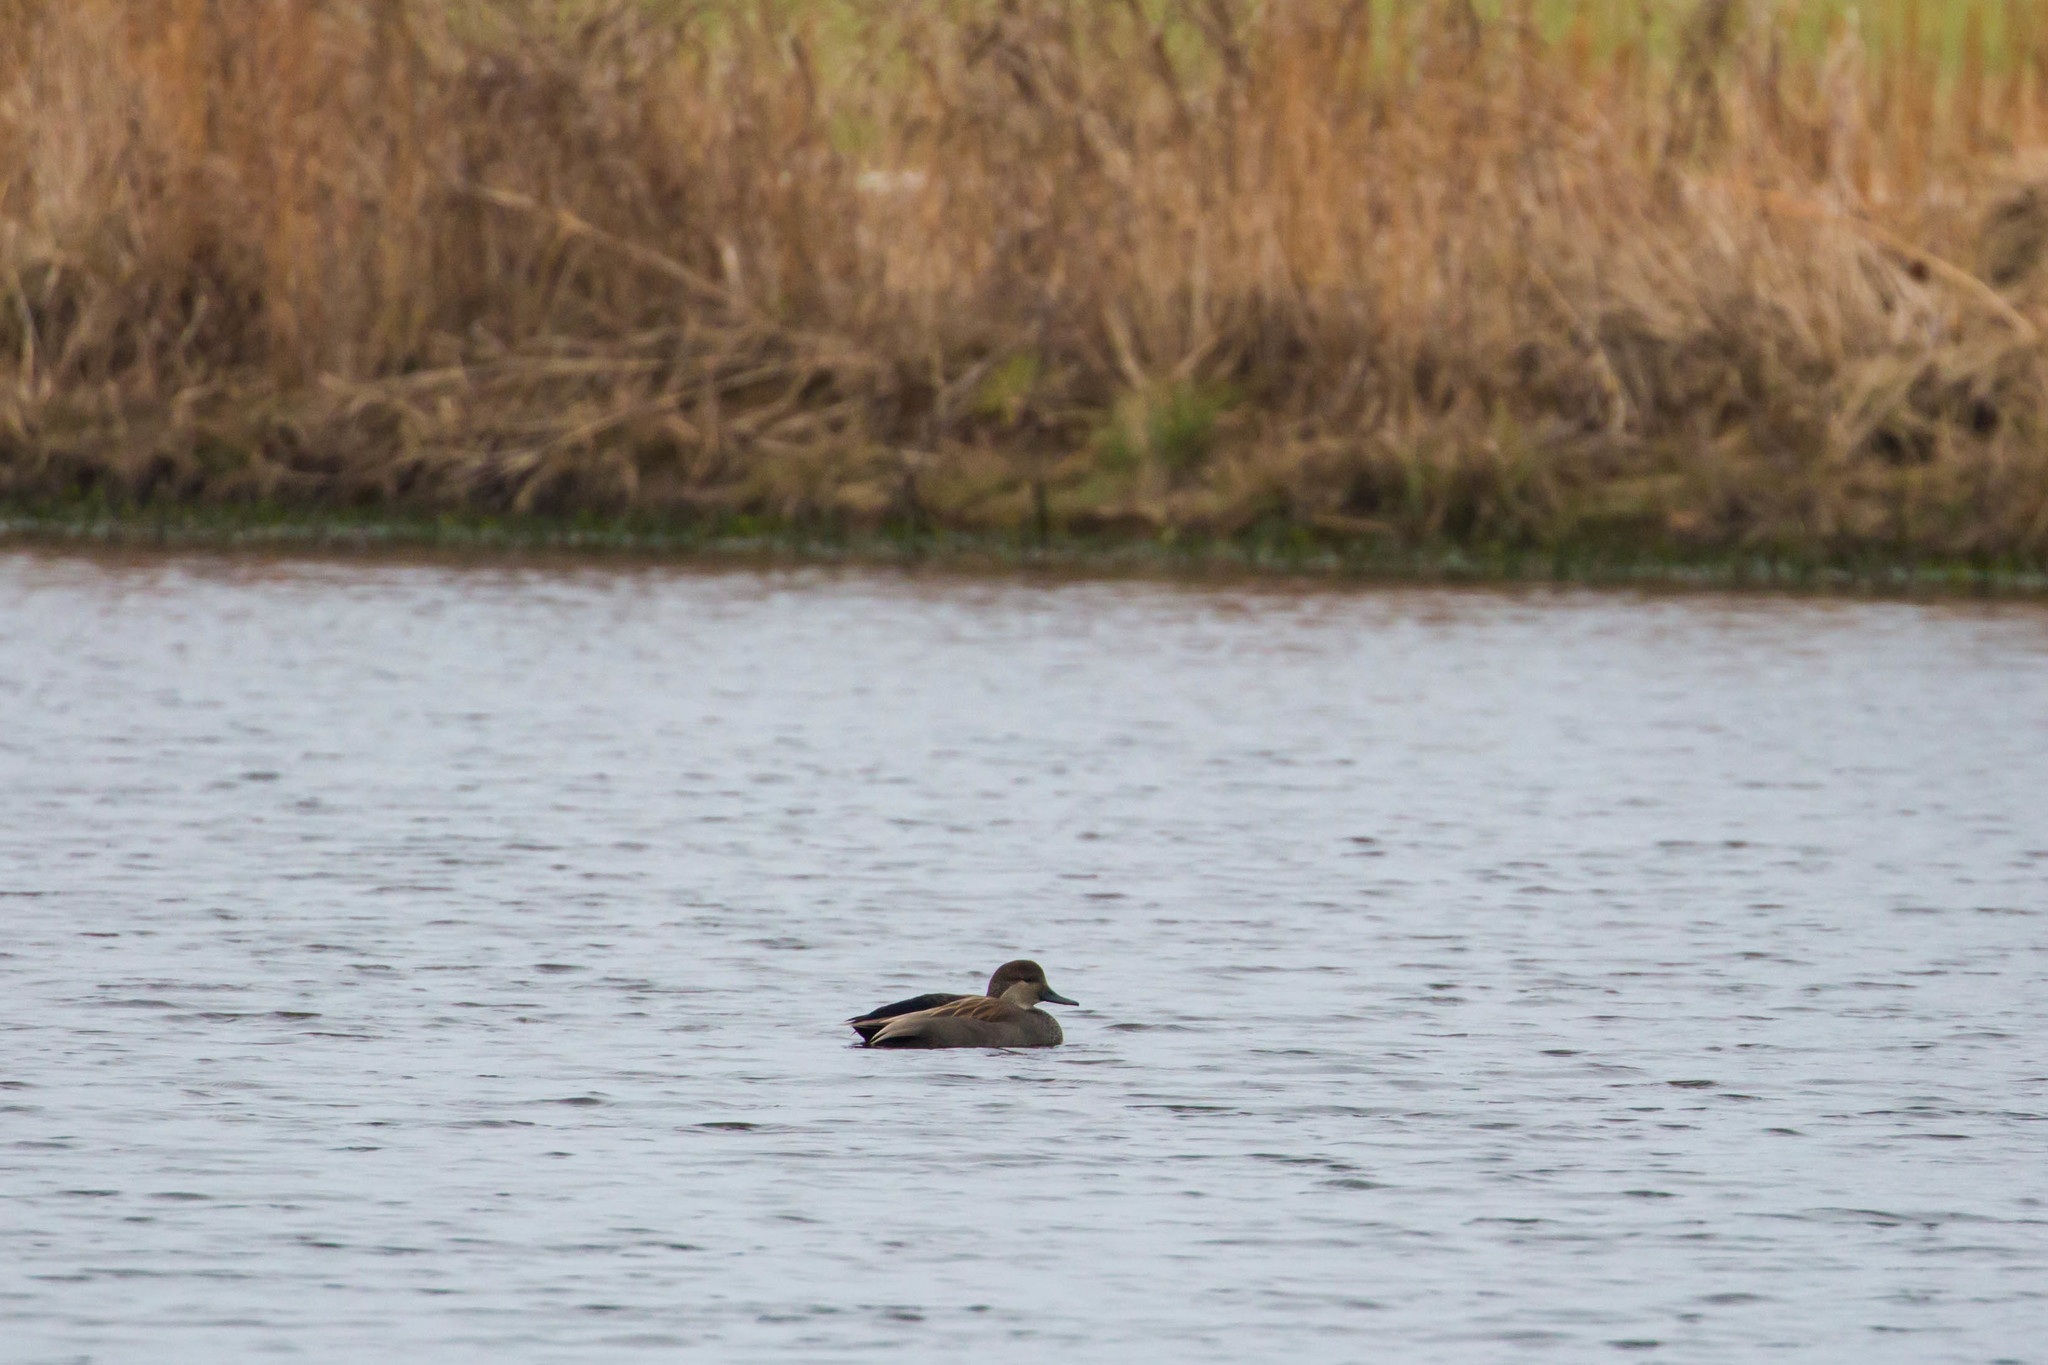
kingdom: Animalia
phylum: Chordata
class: Aves
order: Anseriformes
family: Anatidae
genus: Mareca
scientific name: Mareca strepera
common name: Gadwall
